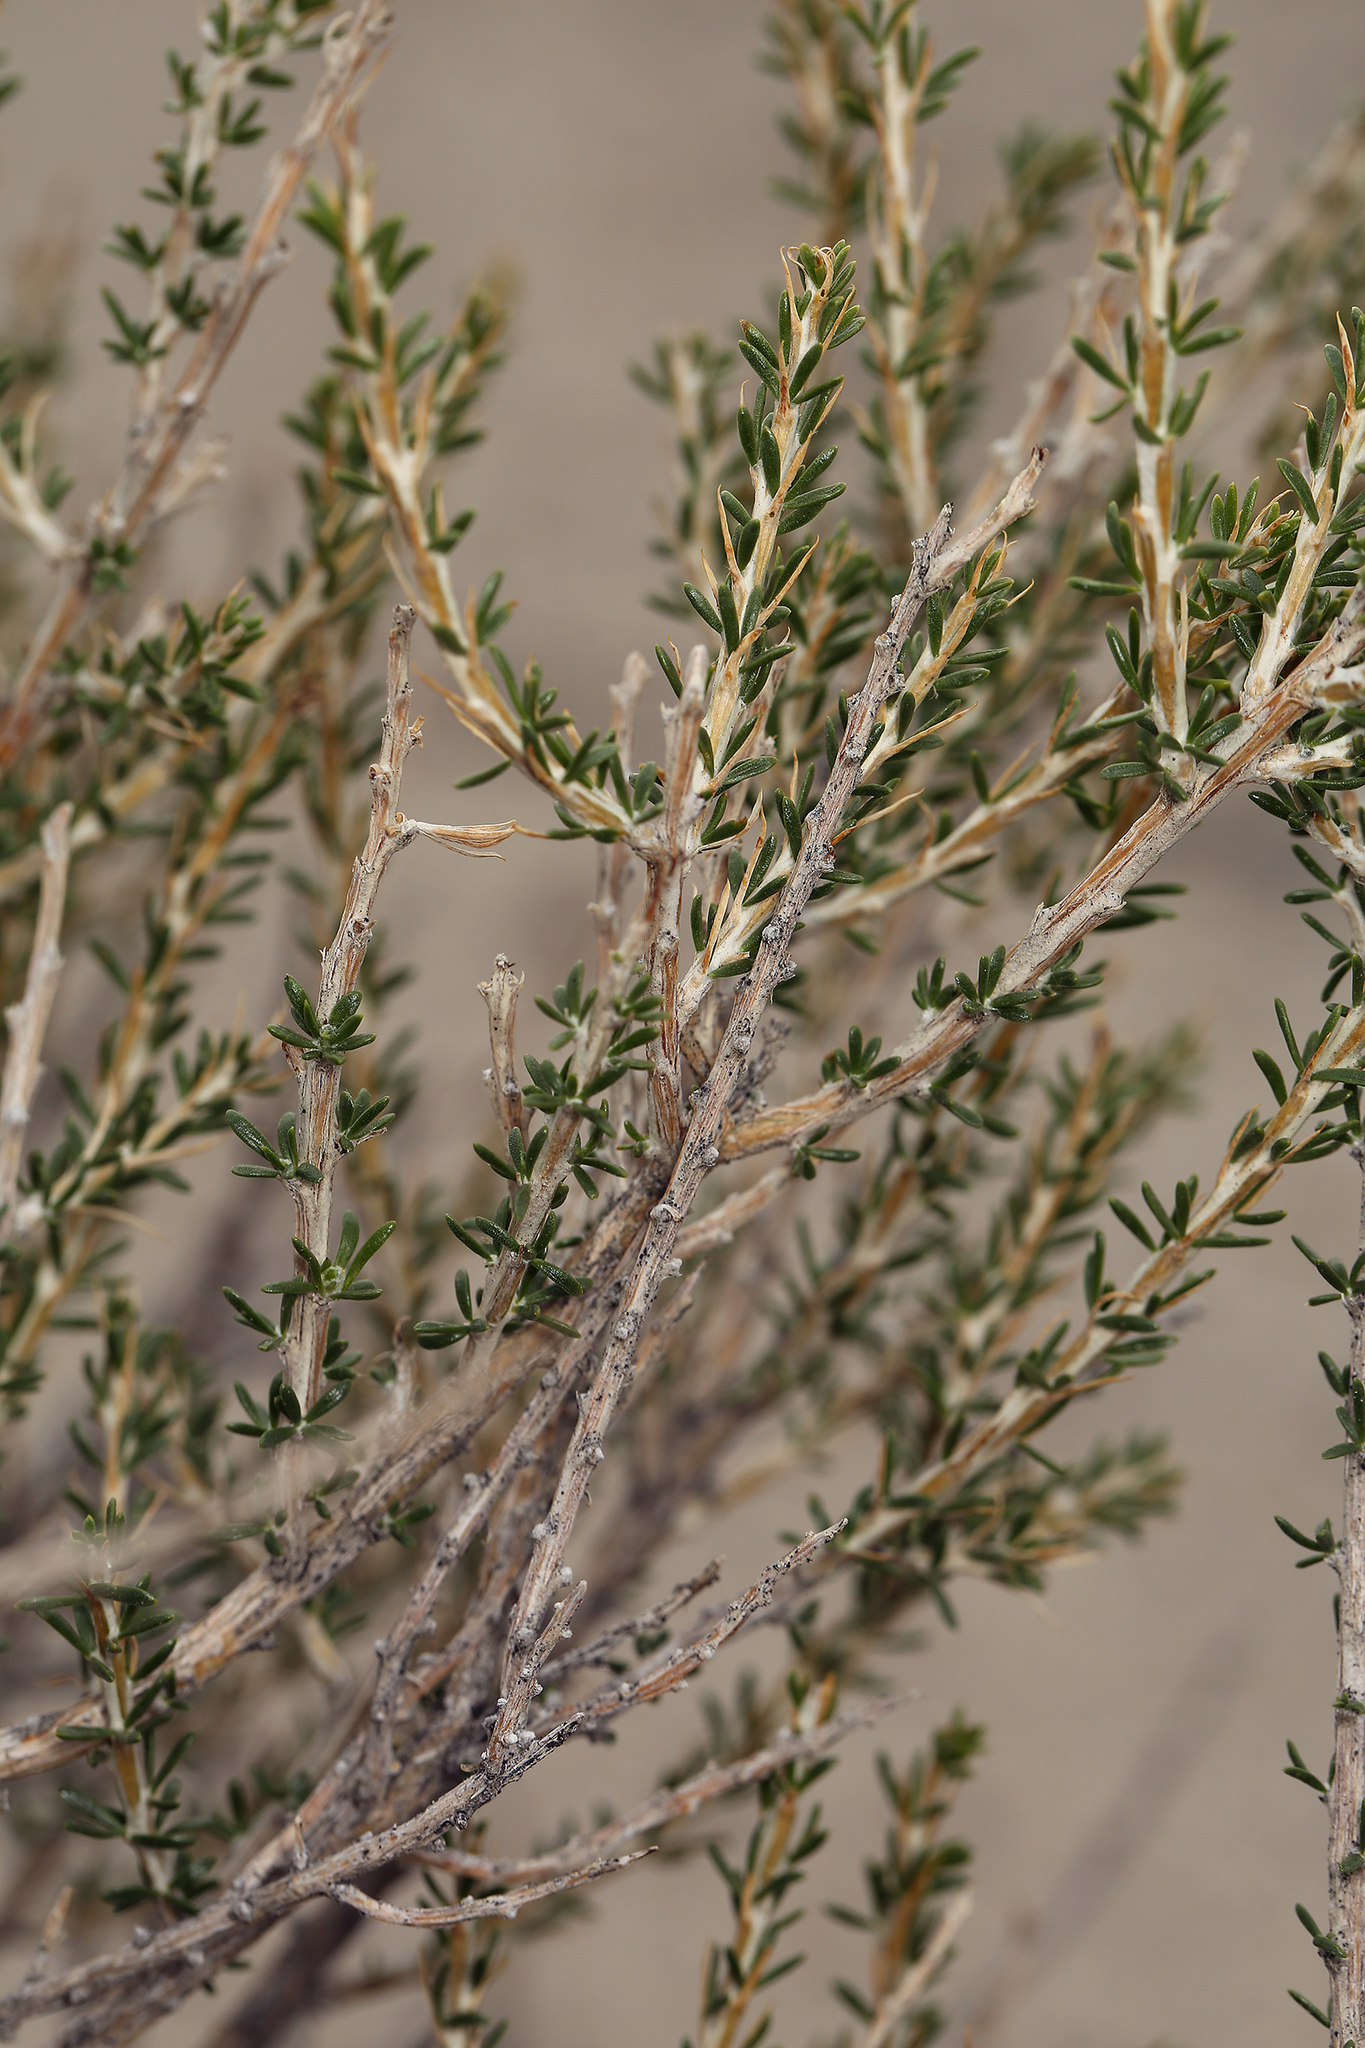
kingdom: Plantae
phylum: Tracheophyta
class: Magnoliopsida
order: Asterales
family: Asteraceae
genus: Tetradymia
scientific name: Tetradymia glabrata
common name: Smooth tetradymia
